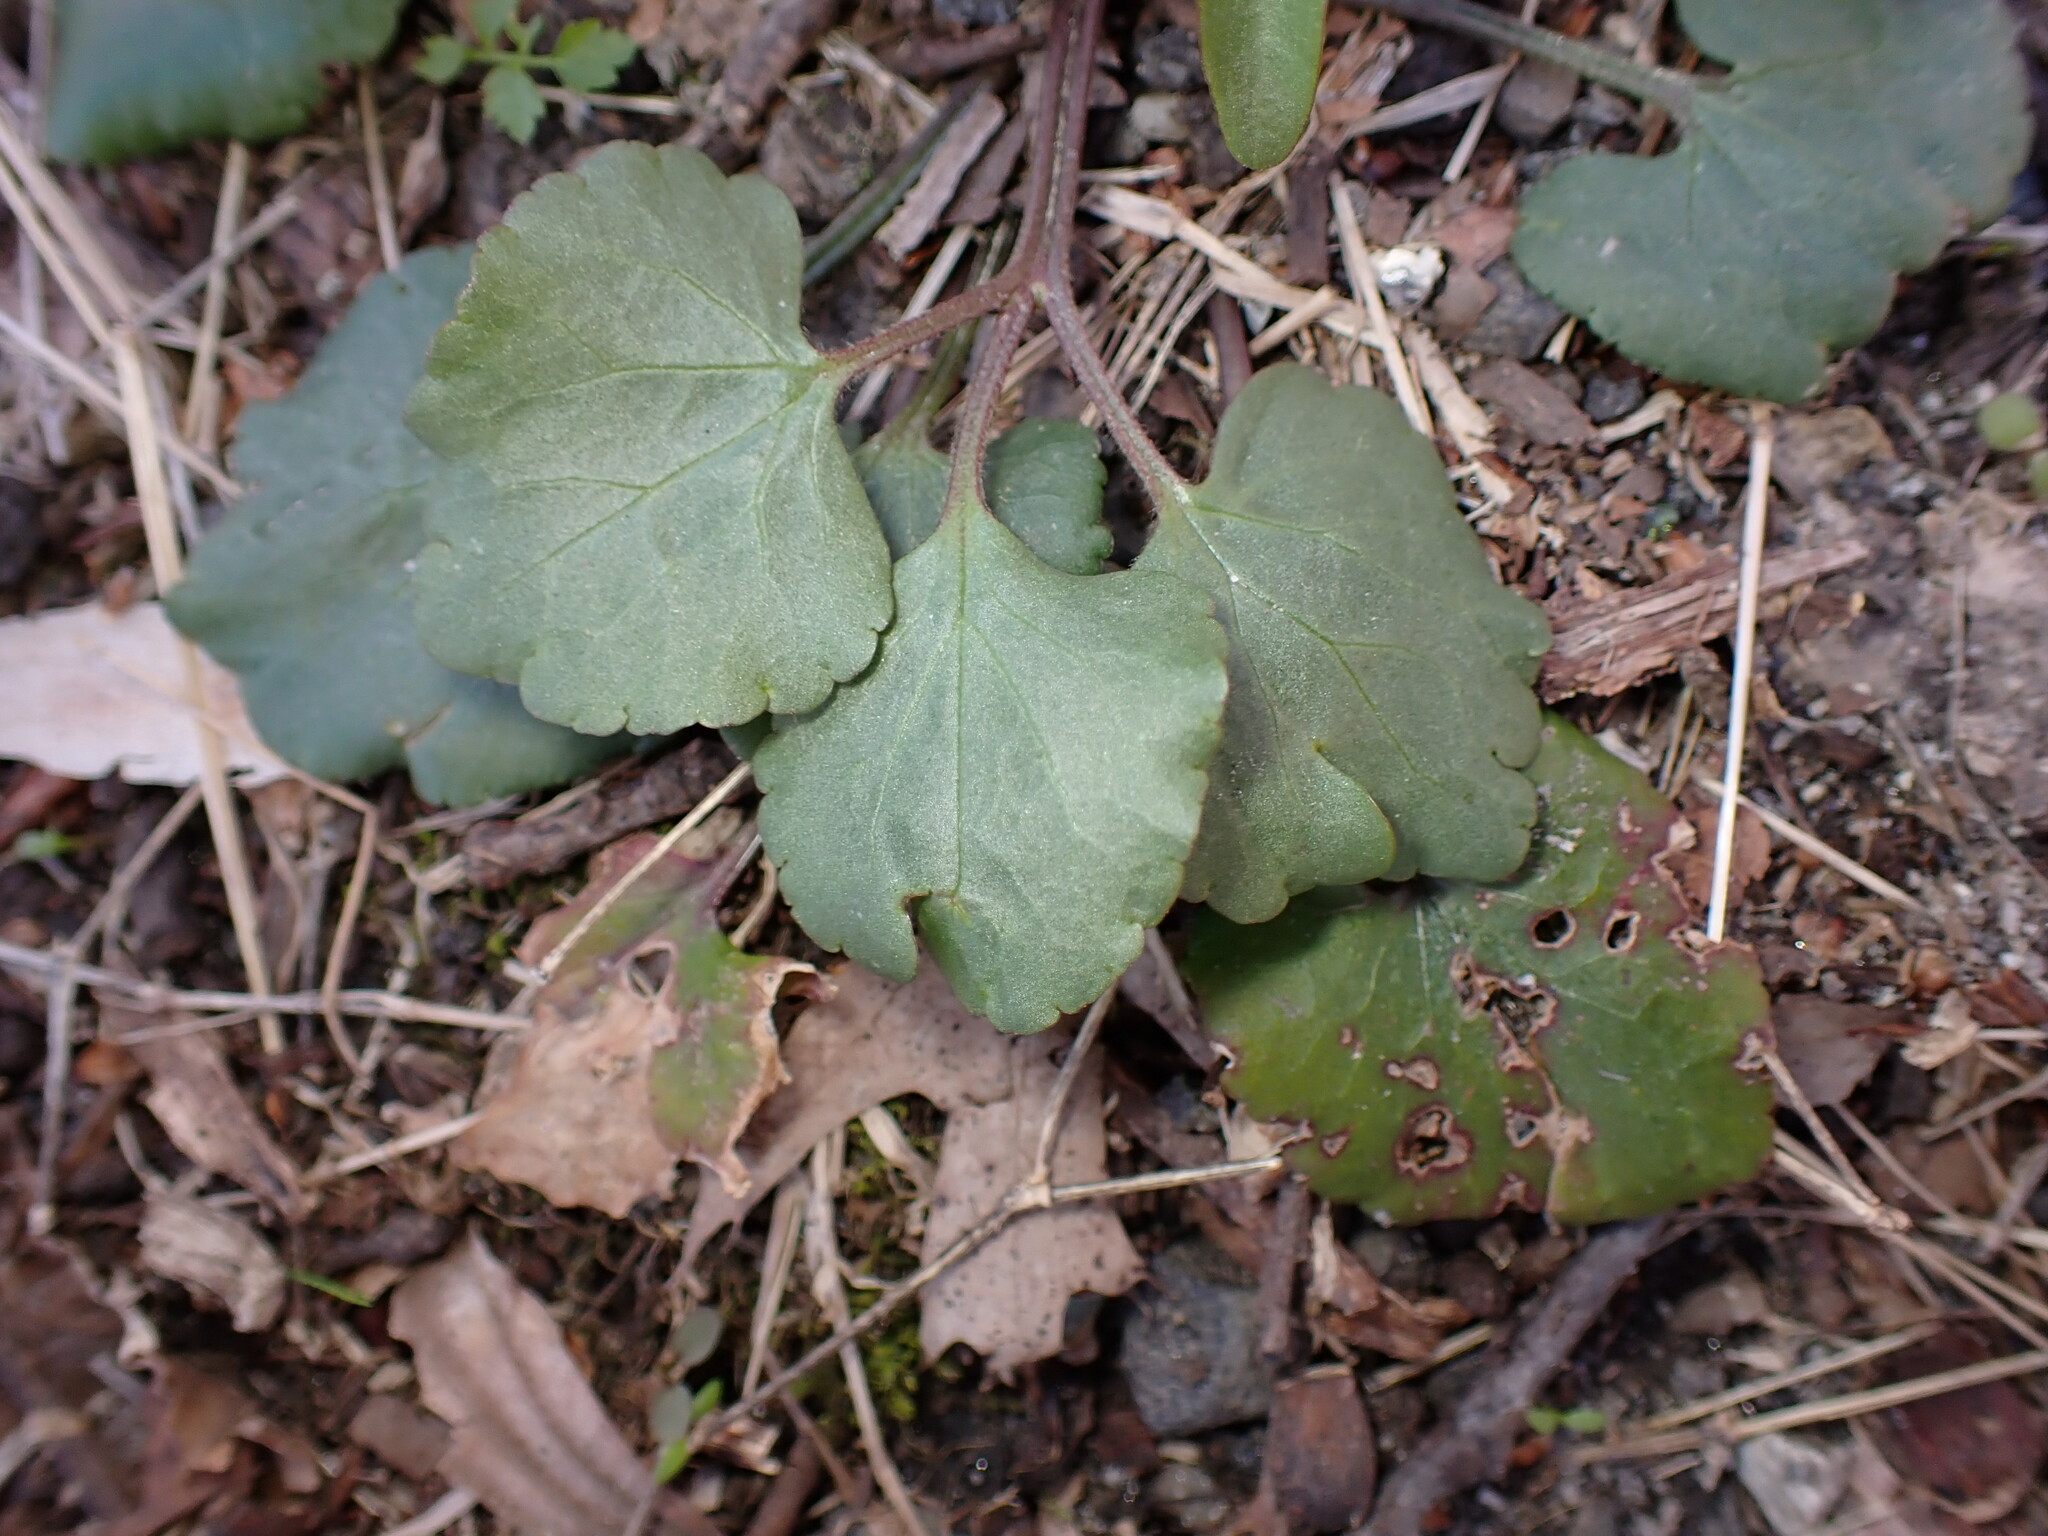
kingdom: Plantae
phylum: Tracheophyta
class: Magnoliopsida
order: Ranunculales
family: Ranunculaceae
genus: Ranunculus
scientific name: Ranunculus abortivus
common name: Early wood buttercup
